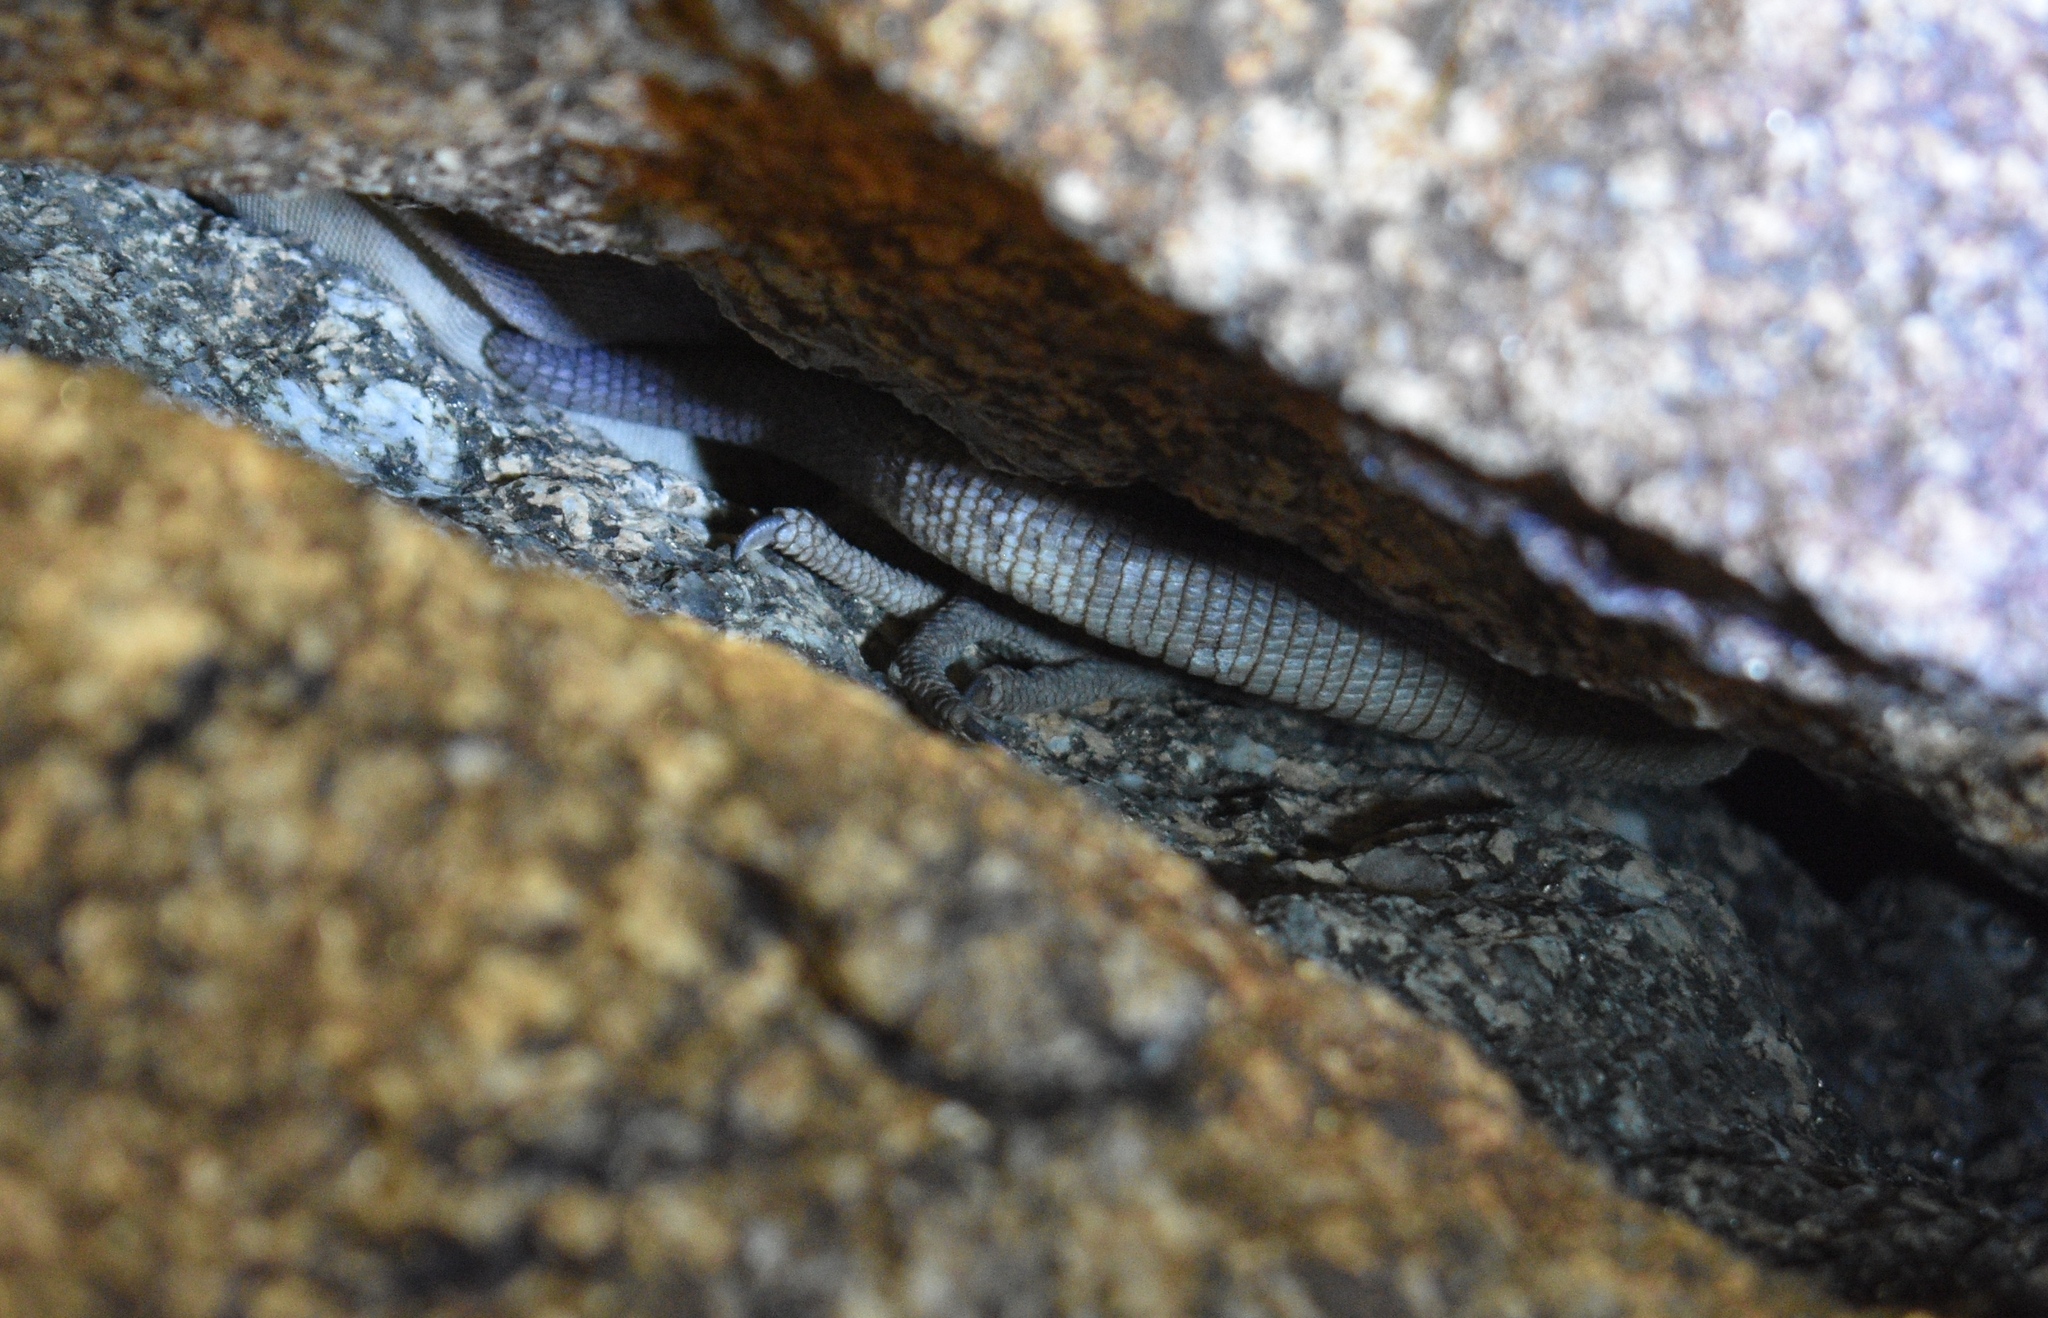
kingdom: Animalia
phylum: Chordata
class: Squamata
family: Iguanidae
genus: Sauromalus
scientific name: Sauromalus ater
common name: Northern chuckwalla
